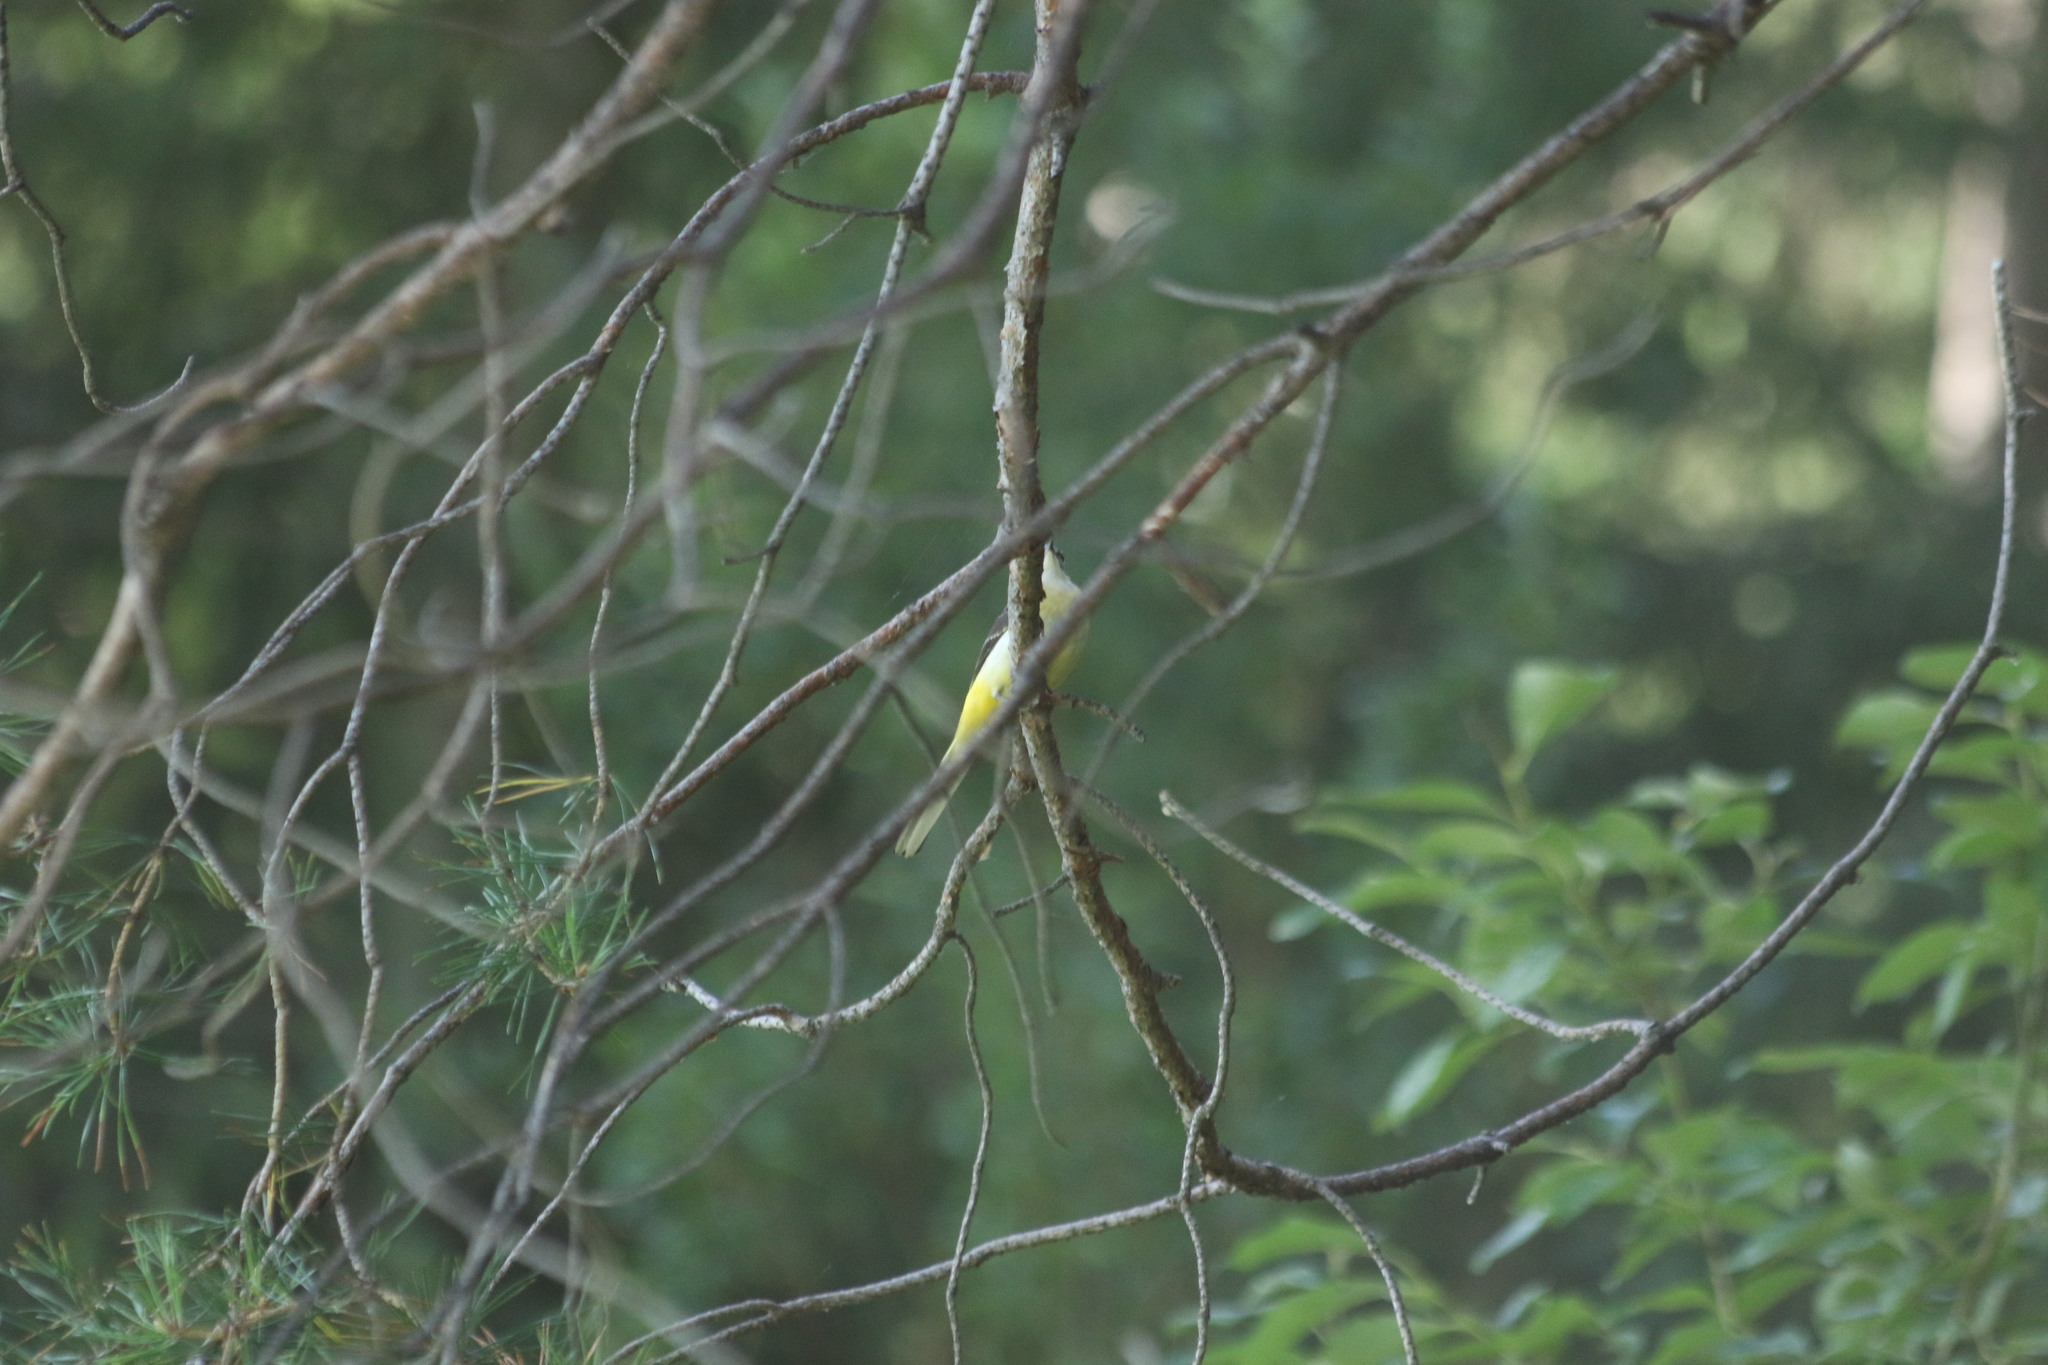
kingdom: Animalia
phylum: Chordata
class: Aves
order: Passeriformes
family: Motacillidae
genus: Motacilla
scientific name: Motacilla cinerea
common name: Grey wagtail
